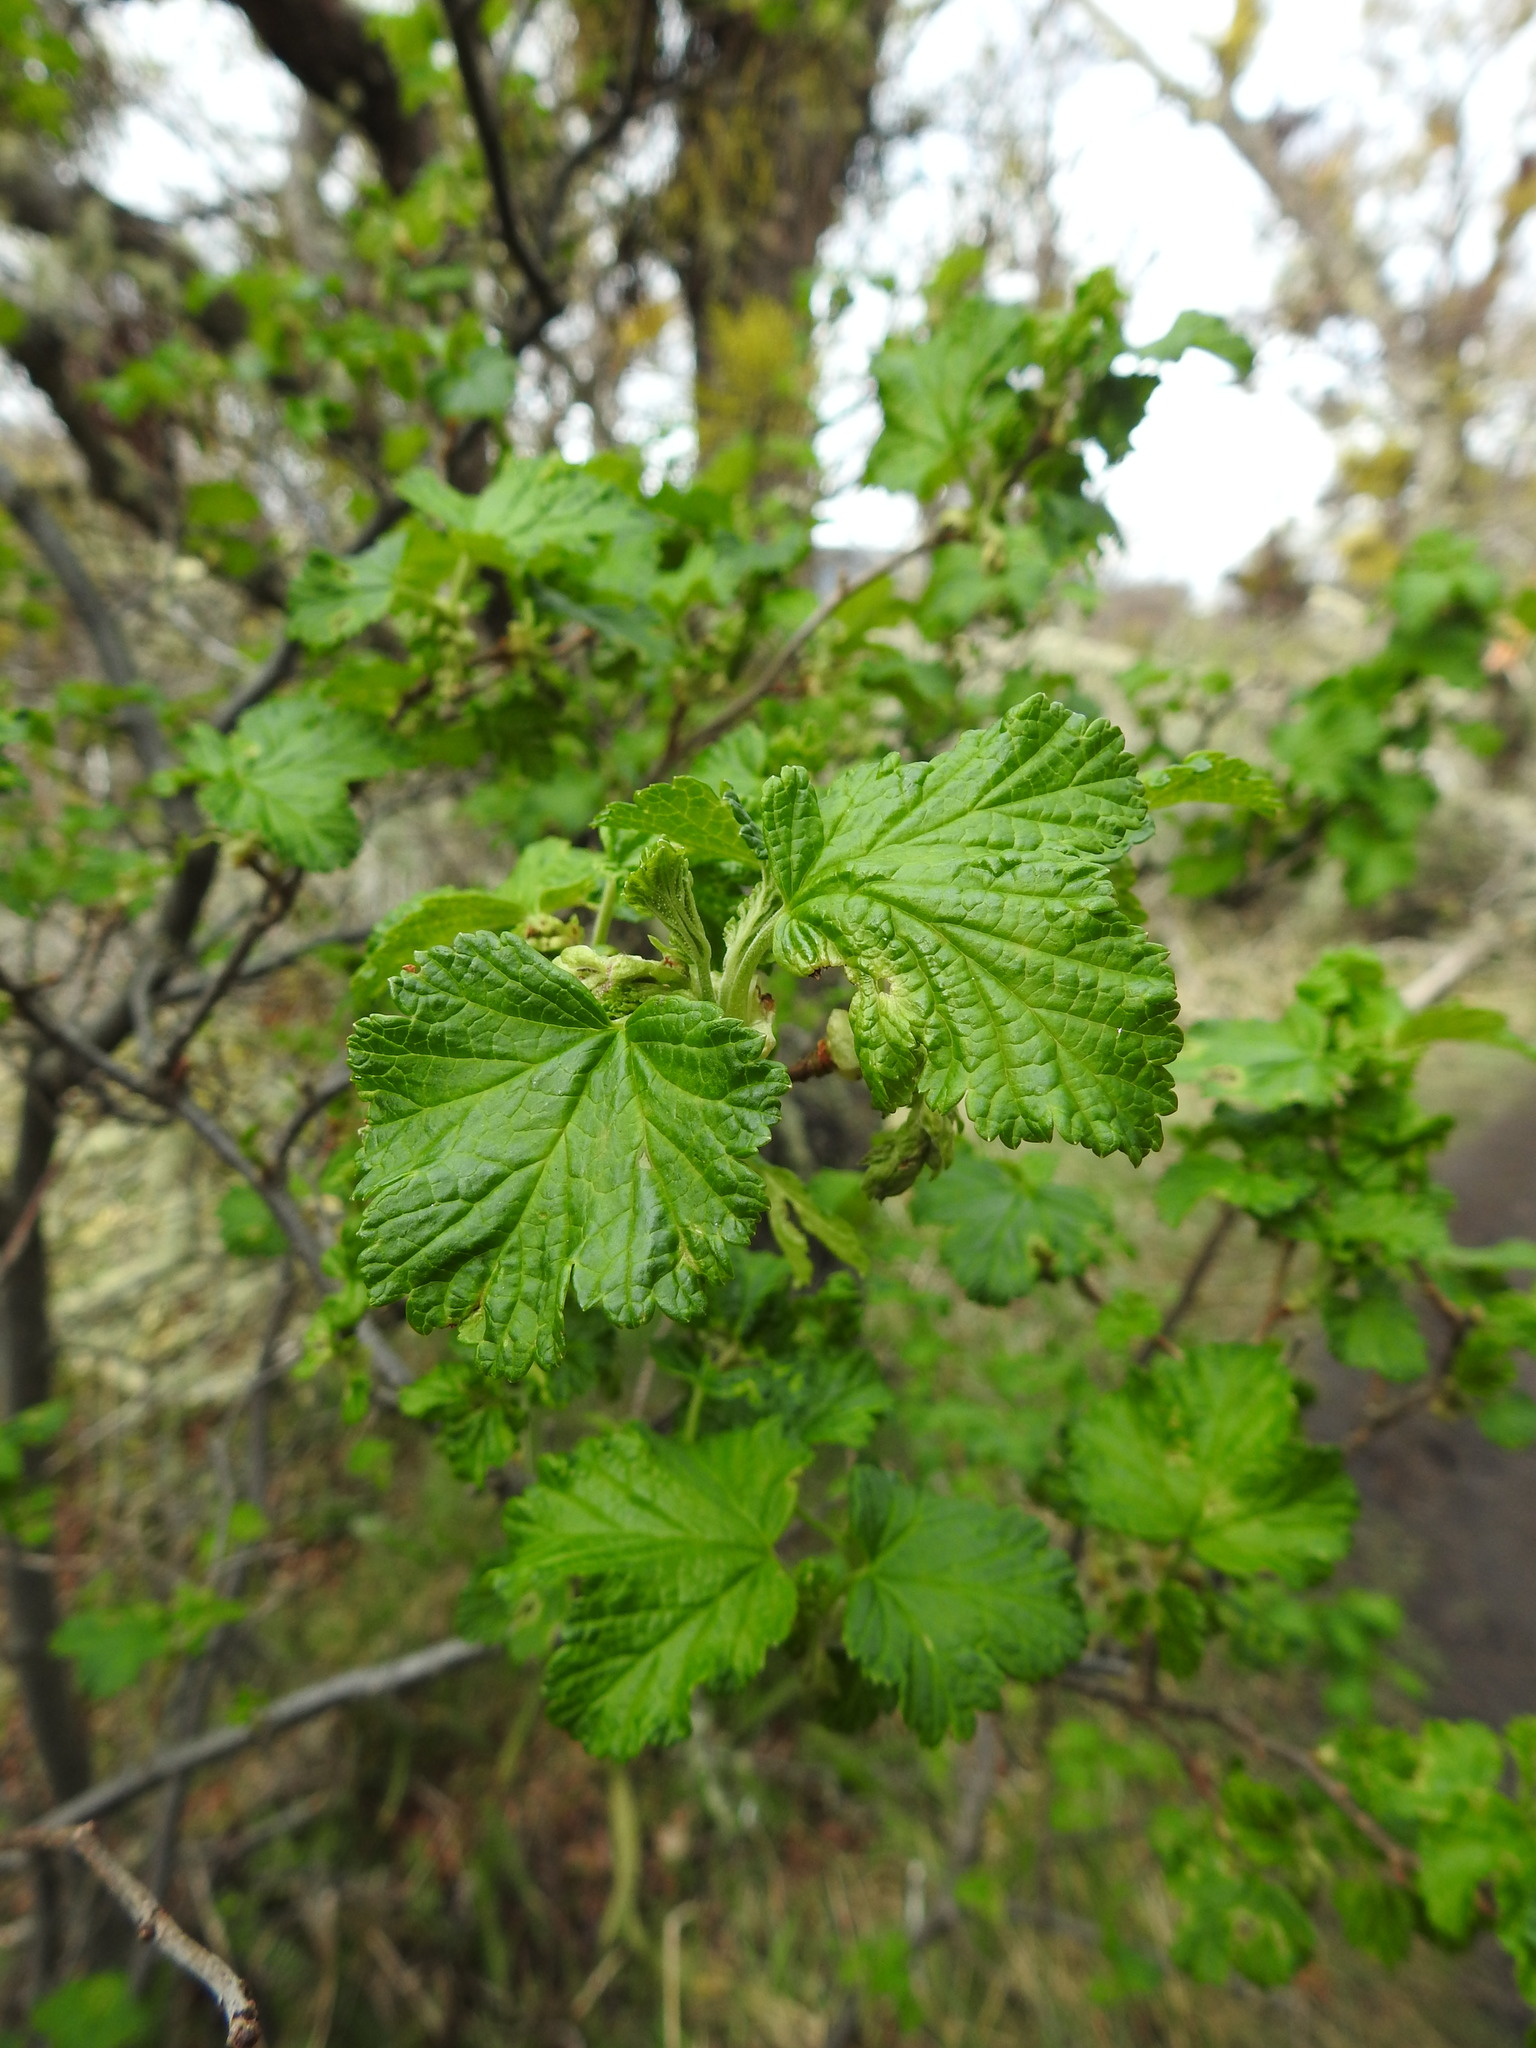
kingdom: Plantae
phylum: Tracheophyta
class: Magnoliopsida
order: Saxifragales
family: Grossulariaceae
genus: Ribes
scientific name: Ribes magellanicum
